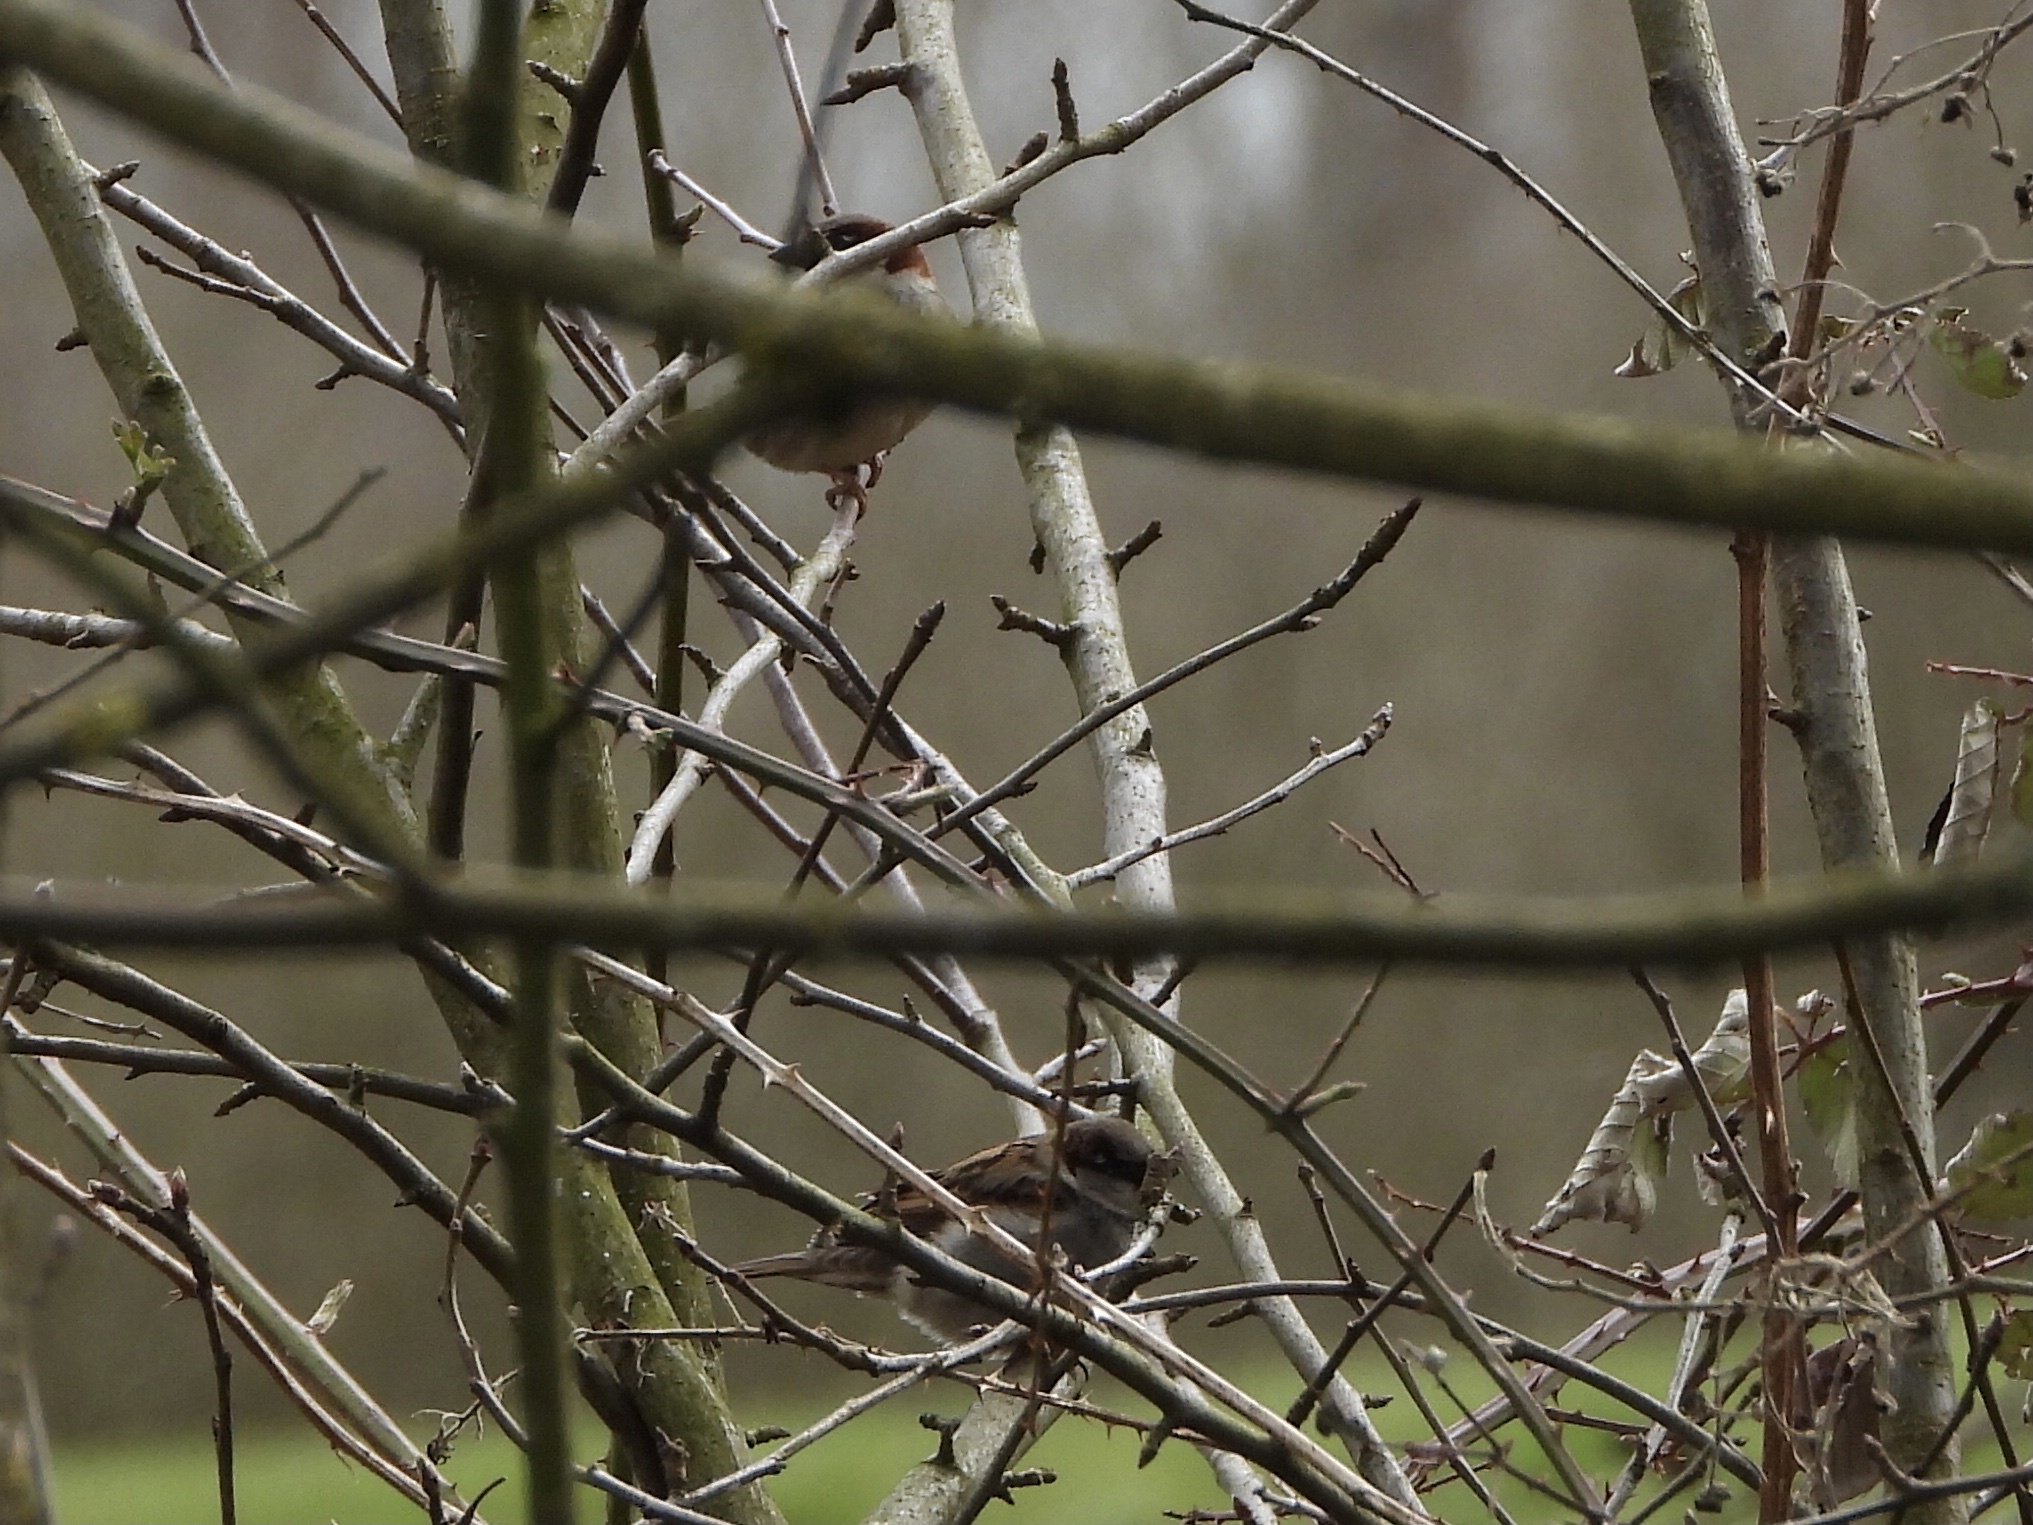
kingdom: Animalia
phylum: Chordata
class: Aves
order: Passeriformes
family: Passeridae
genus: Passer
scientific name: Passer domesticus
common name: House sparrow
